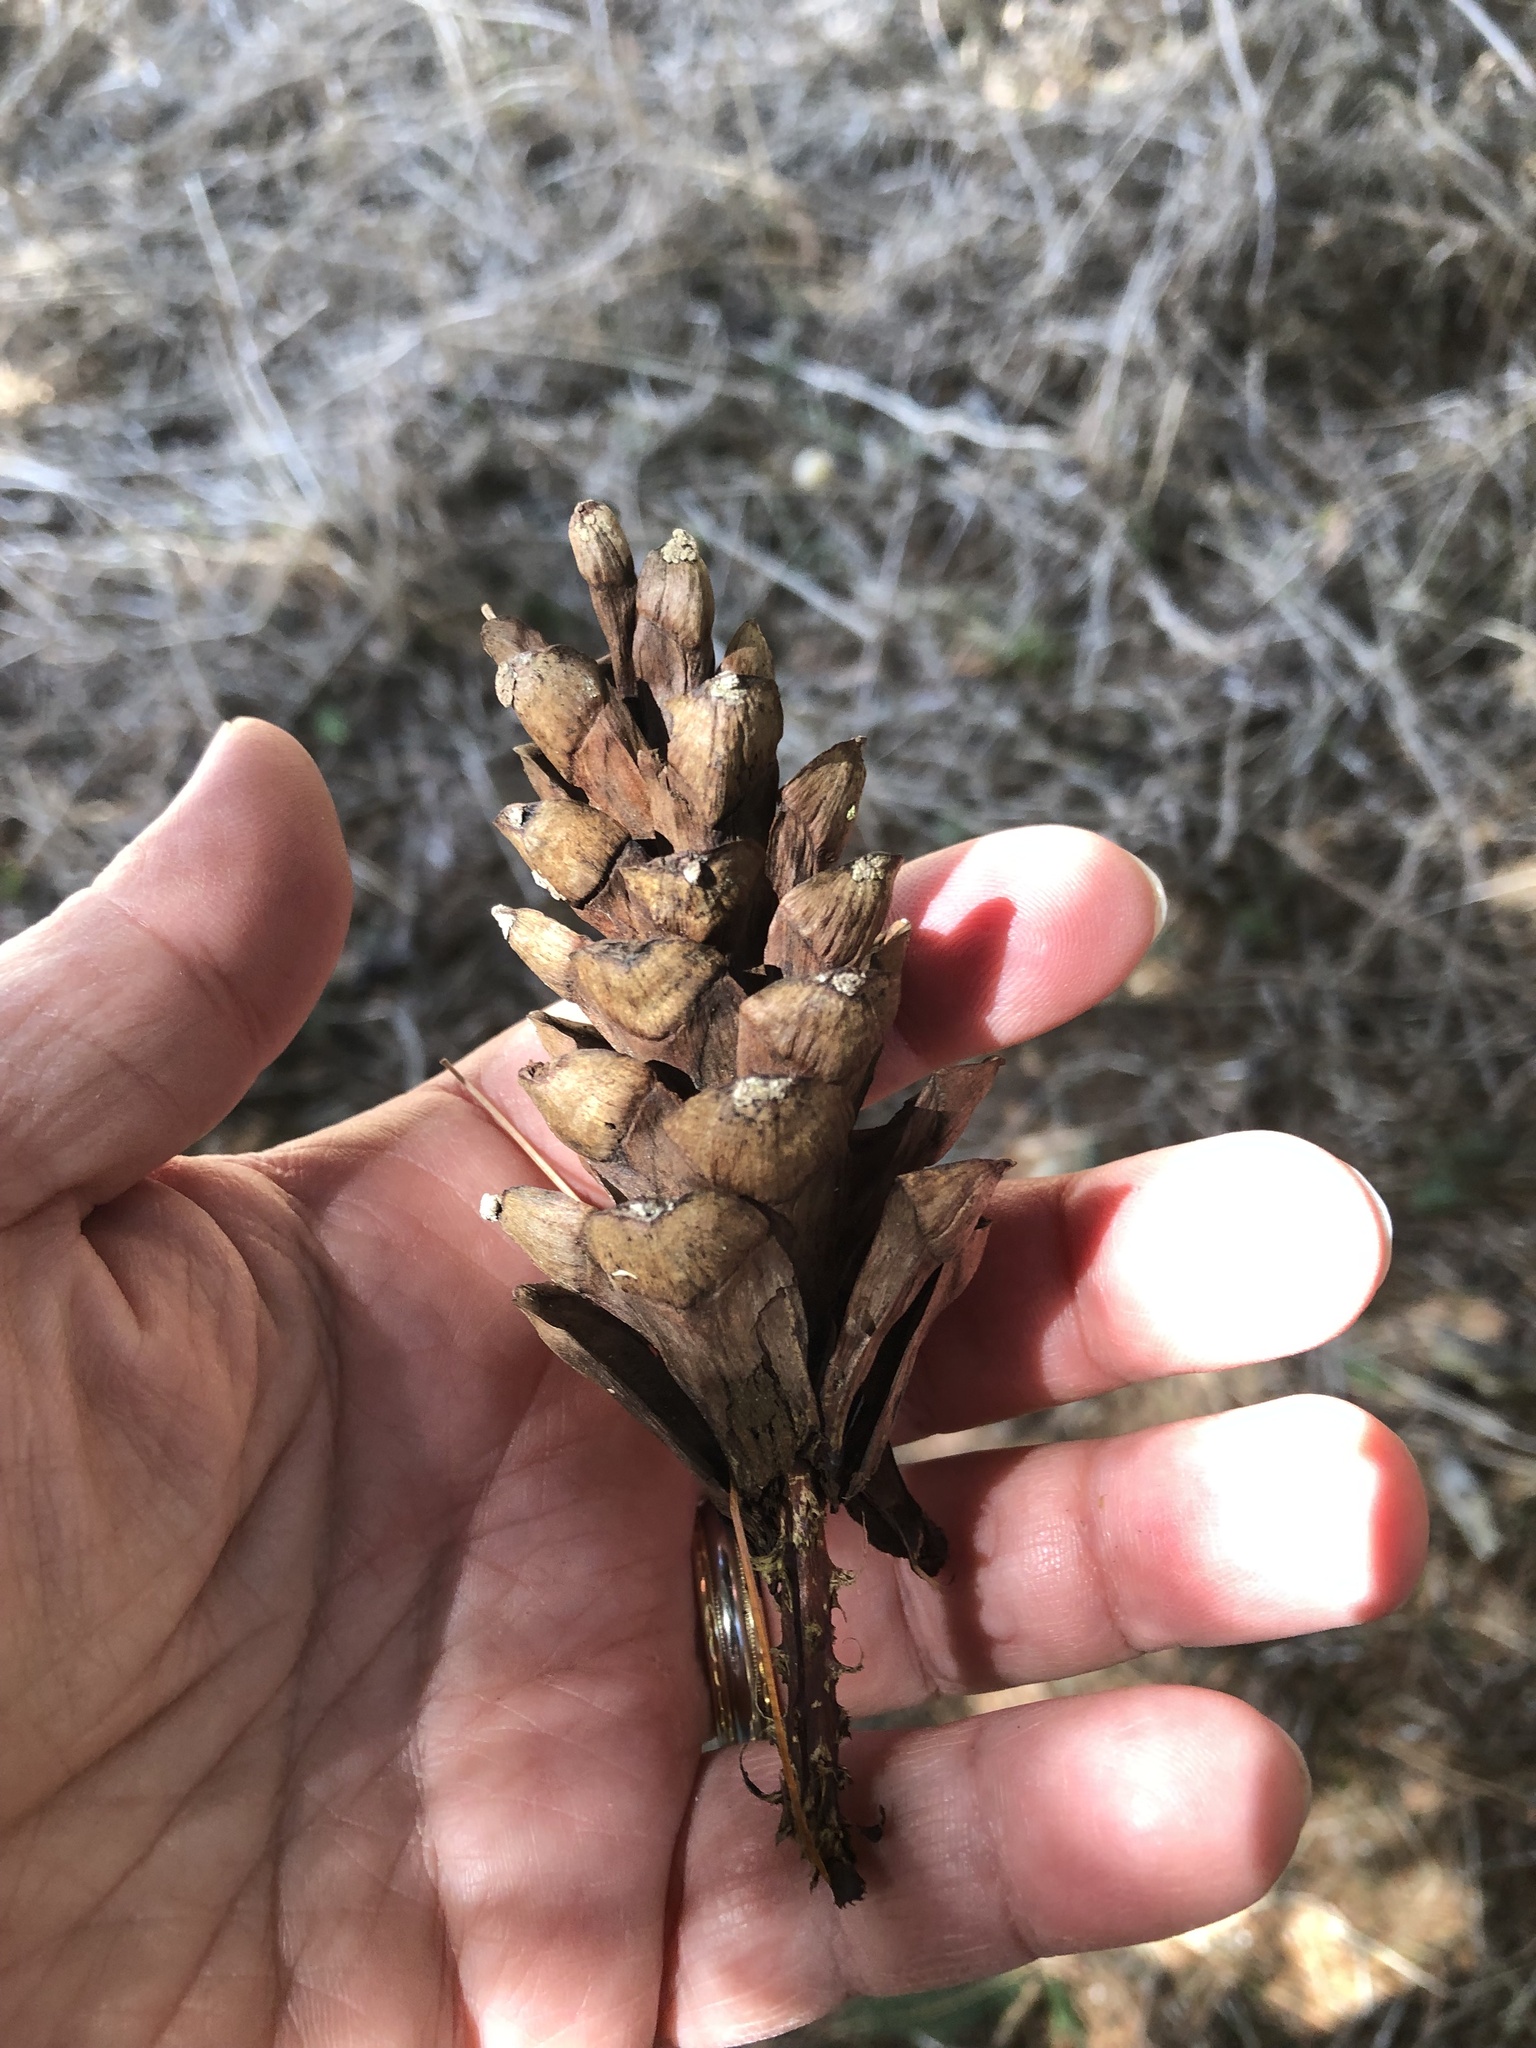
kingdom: Plantae
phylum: Tracheophyta
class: Pinopsida
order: Pinales
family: Pinaceae
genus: Pinus
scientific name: Pinus strobus
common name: Weymouth pine
